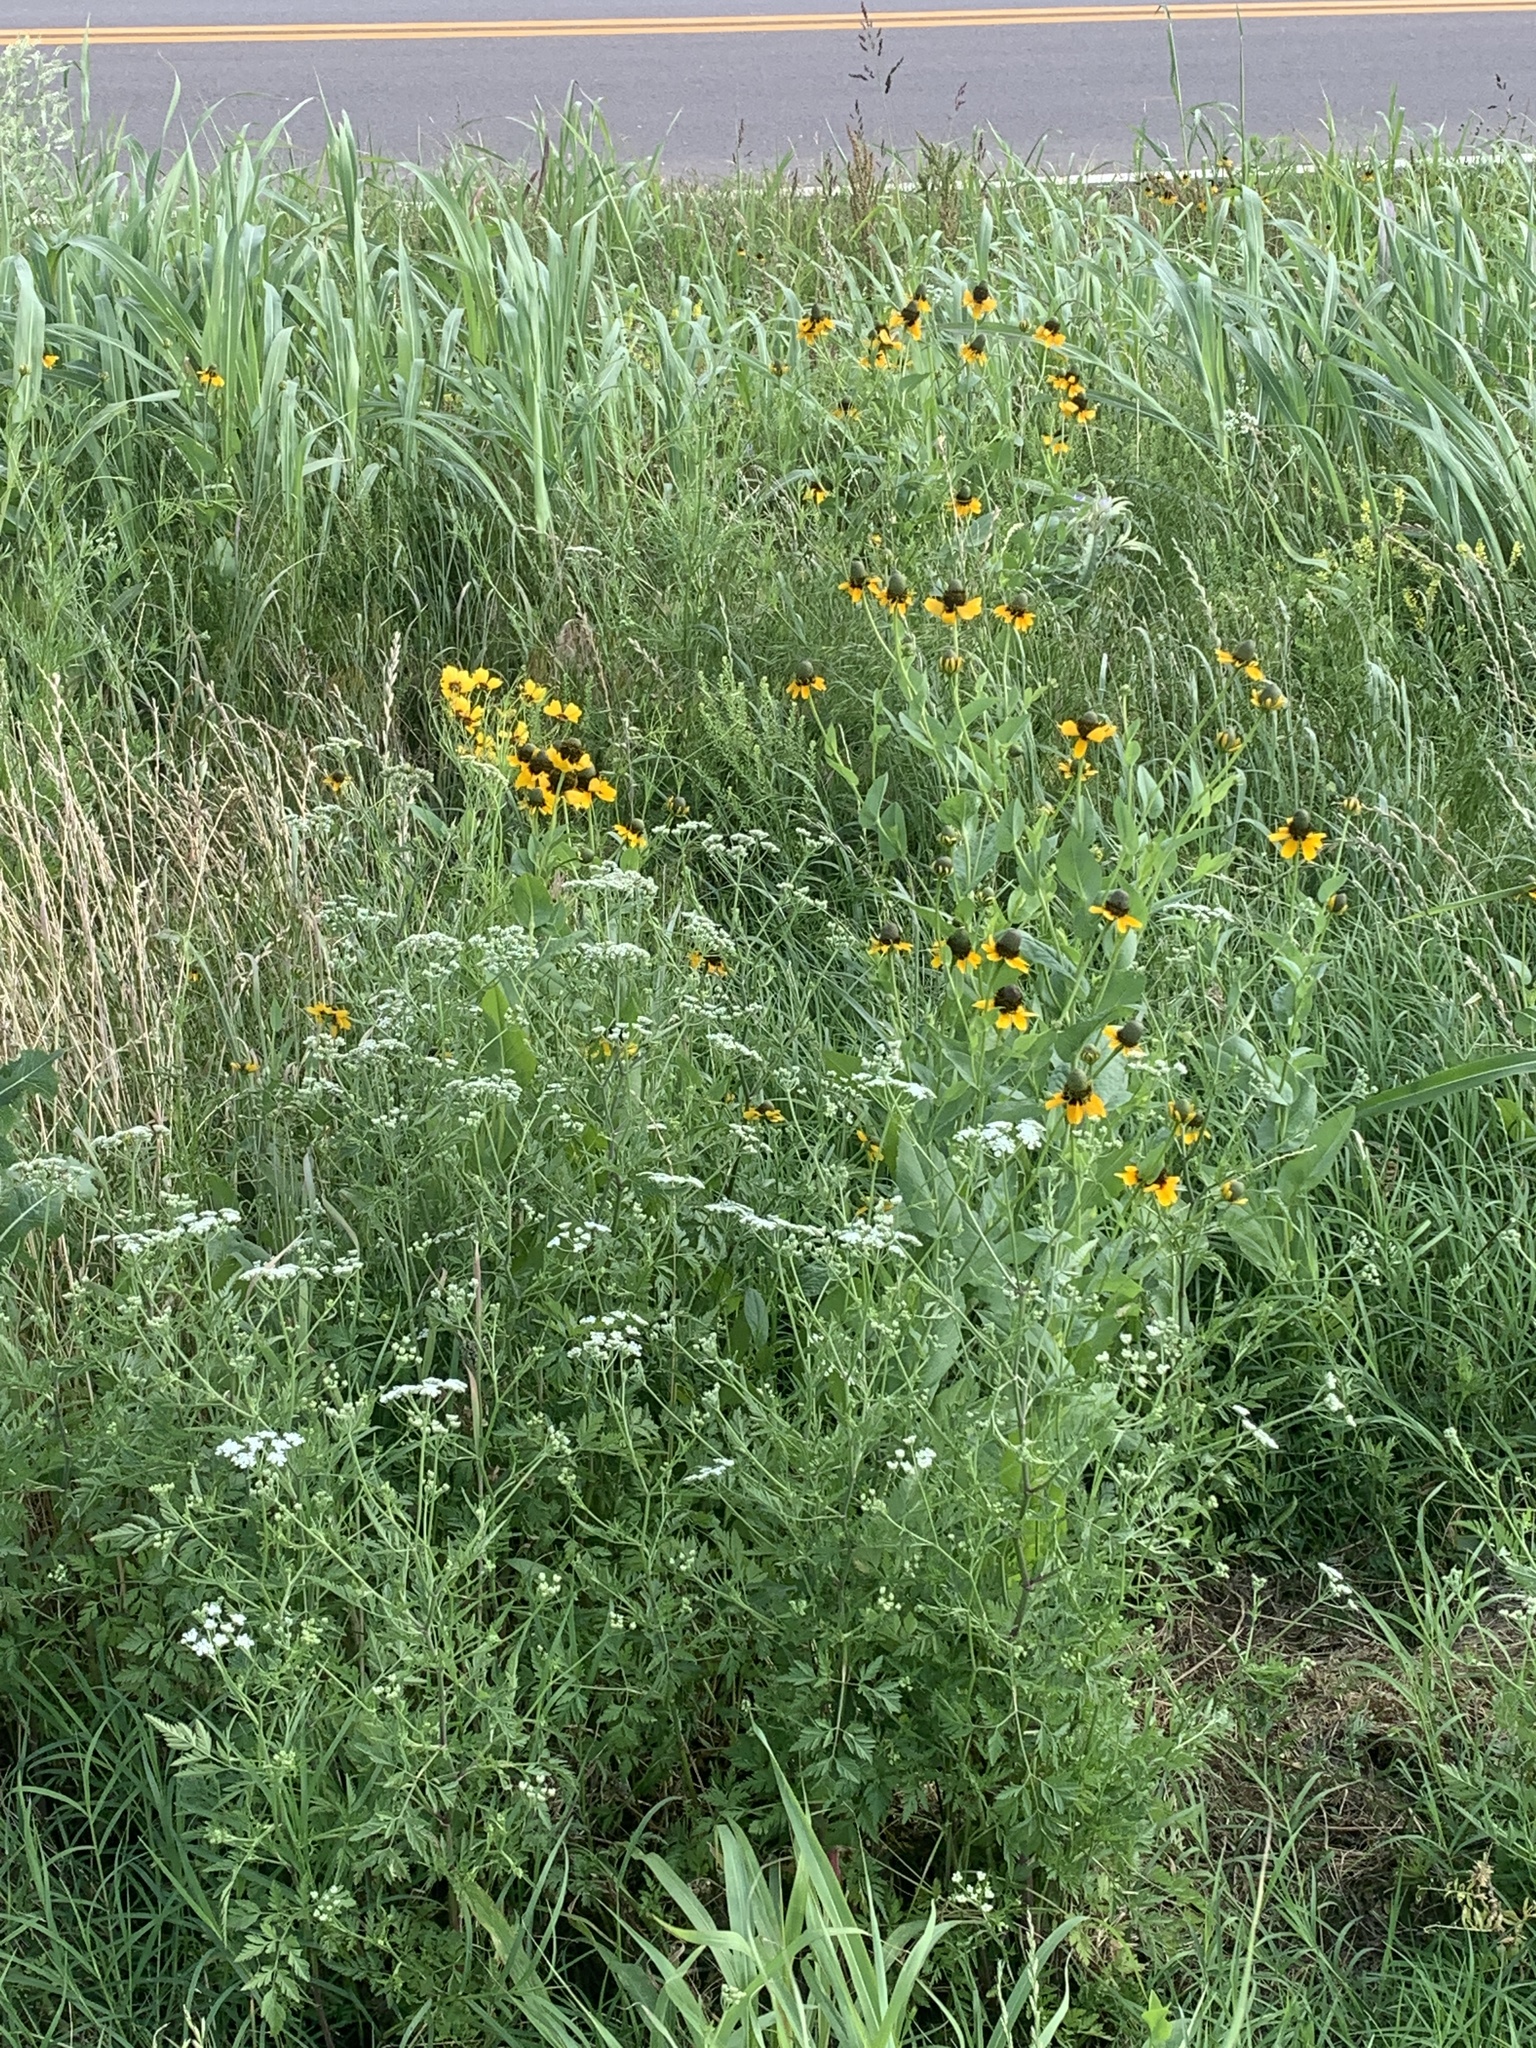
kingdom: Plantae
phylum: Tracheophyta
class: Magnoliopsida
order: Asterales
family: Asteraceae
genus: Rudbeckia
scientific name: Rudbeckia amplexicaulis
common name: Clasping-leaf coneflower
